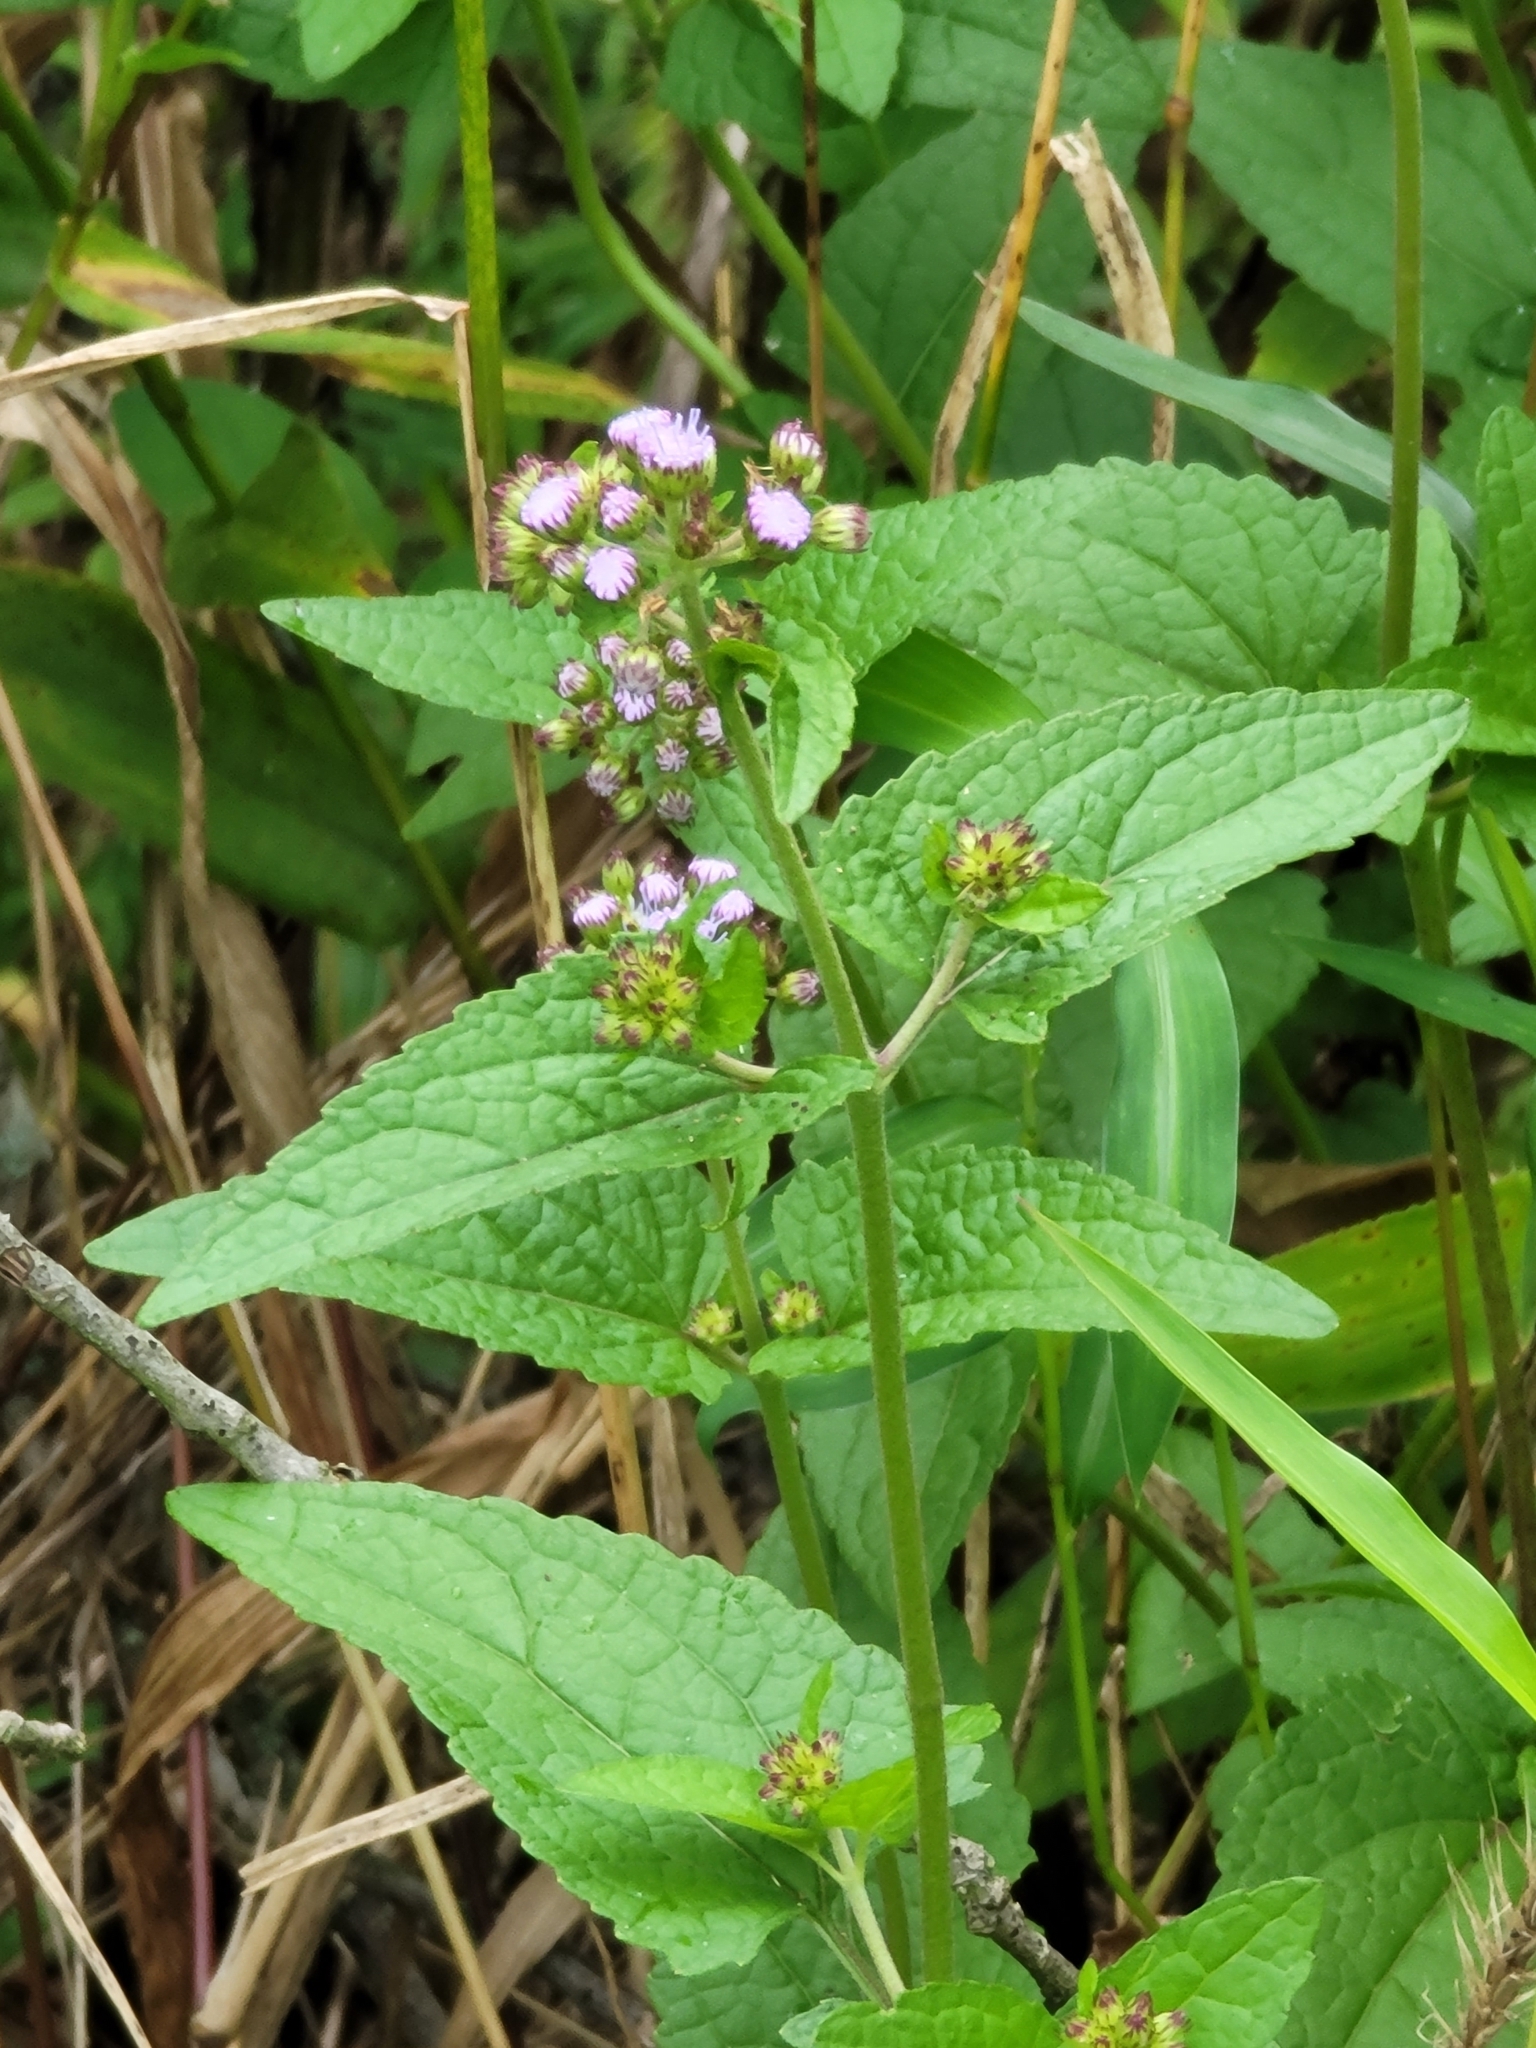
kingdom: Plantae
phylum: Tracheophyta
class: Magnoliopsida
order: Asterales
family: Asteraceae
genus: Conoclinium
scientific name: Conoclinium coelestinum
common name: Blue mistflower
